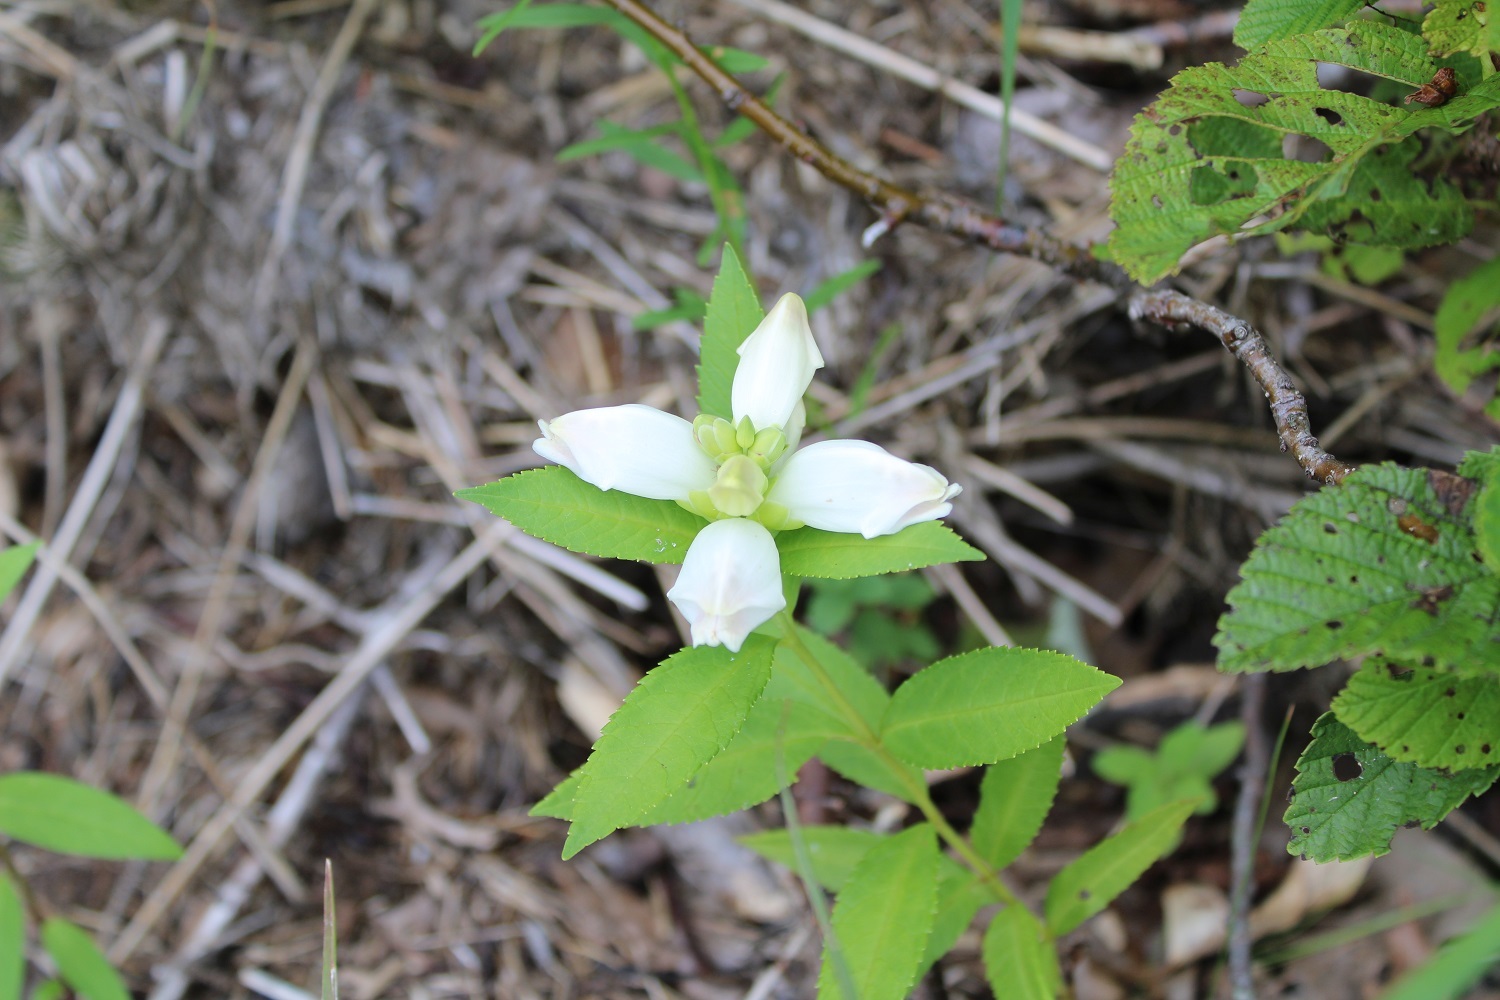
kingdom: Plantae
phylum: Tracheophyta
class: Magnoliopsida
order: Lamiales
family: Plantaginaceae
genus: Chelone
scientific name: Chelone glabra
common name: Snakehead
